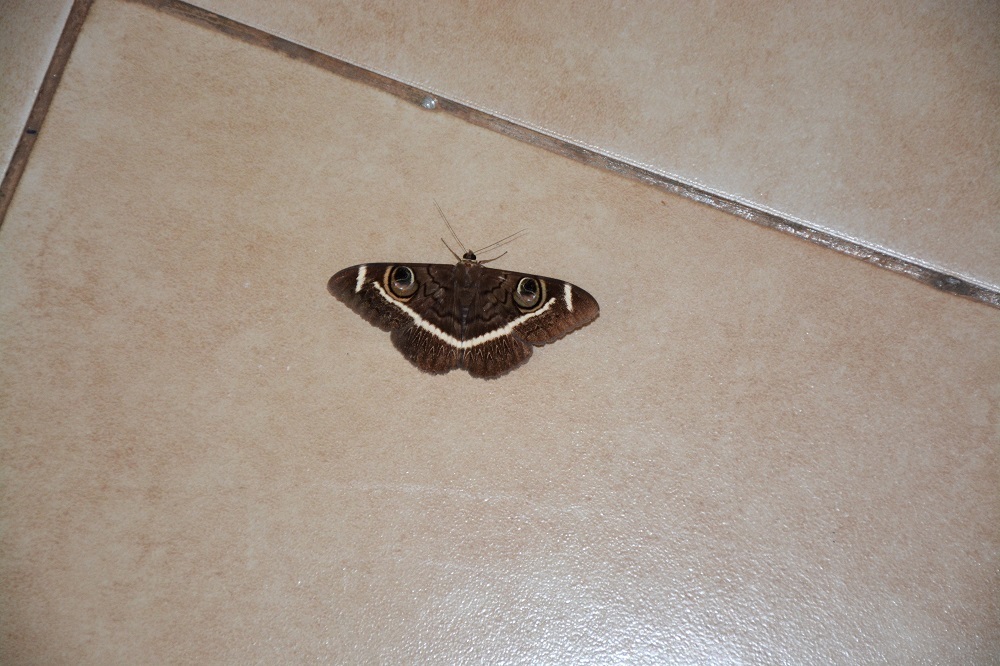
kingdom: Animalia
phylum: Arthropoda
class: Insecta
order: Lepidoptera
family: Erebidae
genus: Cyligramma
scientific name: Cyligramma latona
